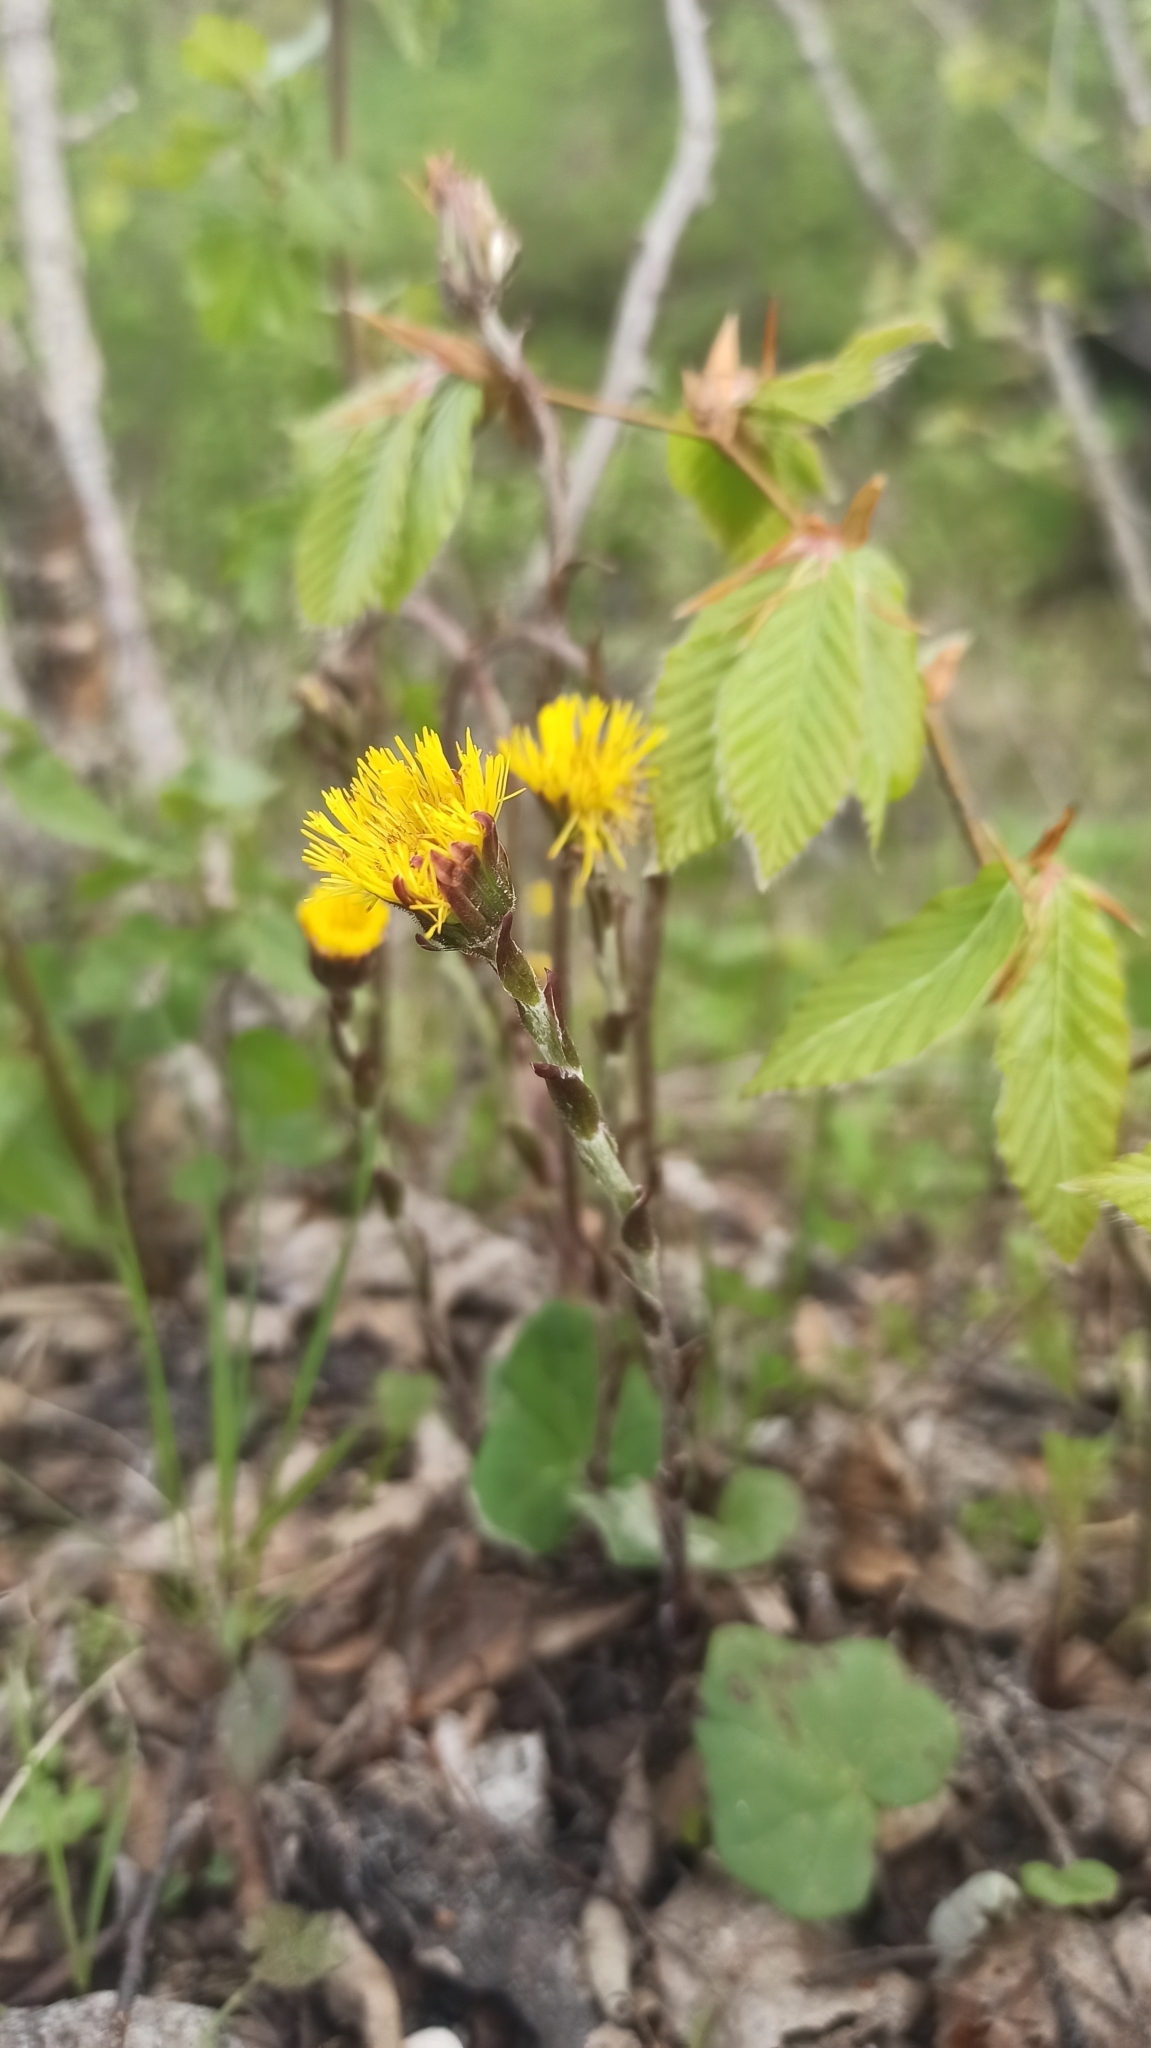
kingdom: Plantae
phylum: Tracheophyta
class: Magnoliopsida
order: Asterales
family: Asteraceae
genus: Tussilago
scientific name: Tussilago farfara
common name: Coltsfoot
